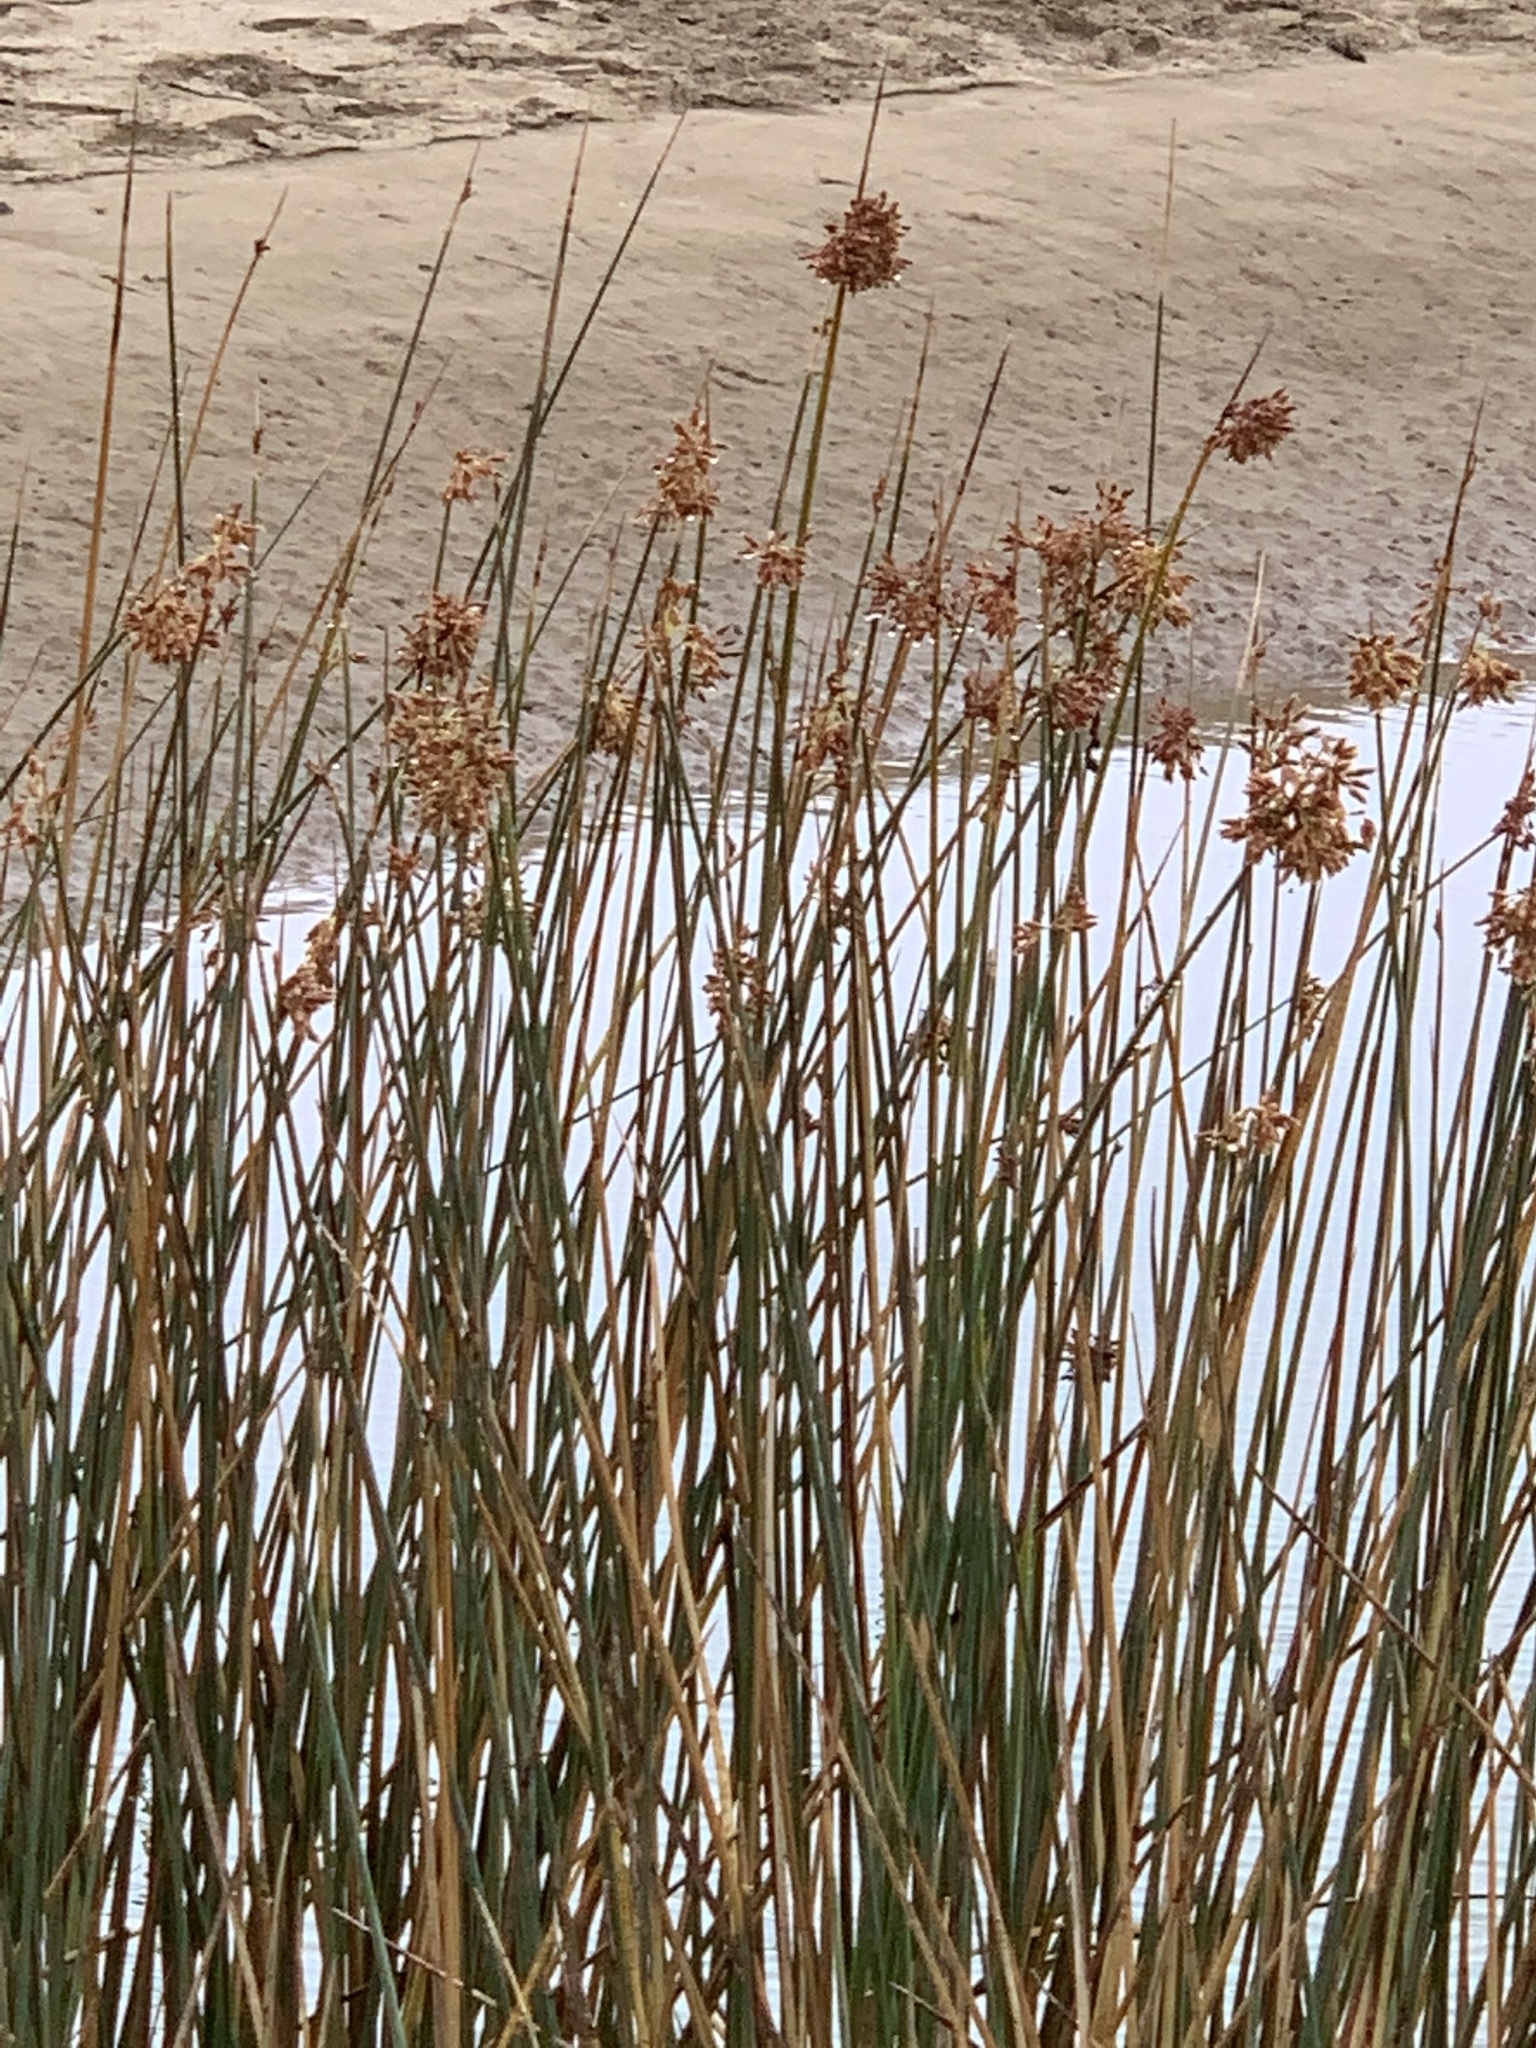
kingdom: Plantae
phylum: Tracheophyta
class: Liliopsida
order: Poales
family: Cyperaceae
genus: Schoenoplectus
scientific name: Schoenoplectus scirpoides
